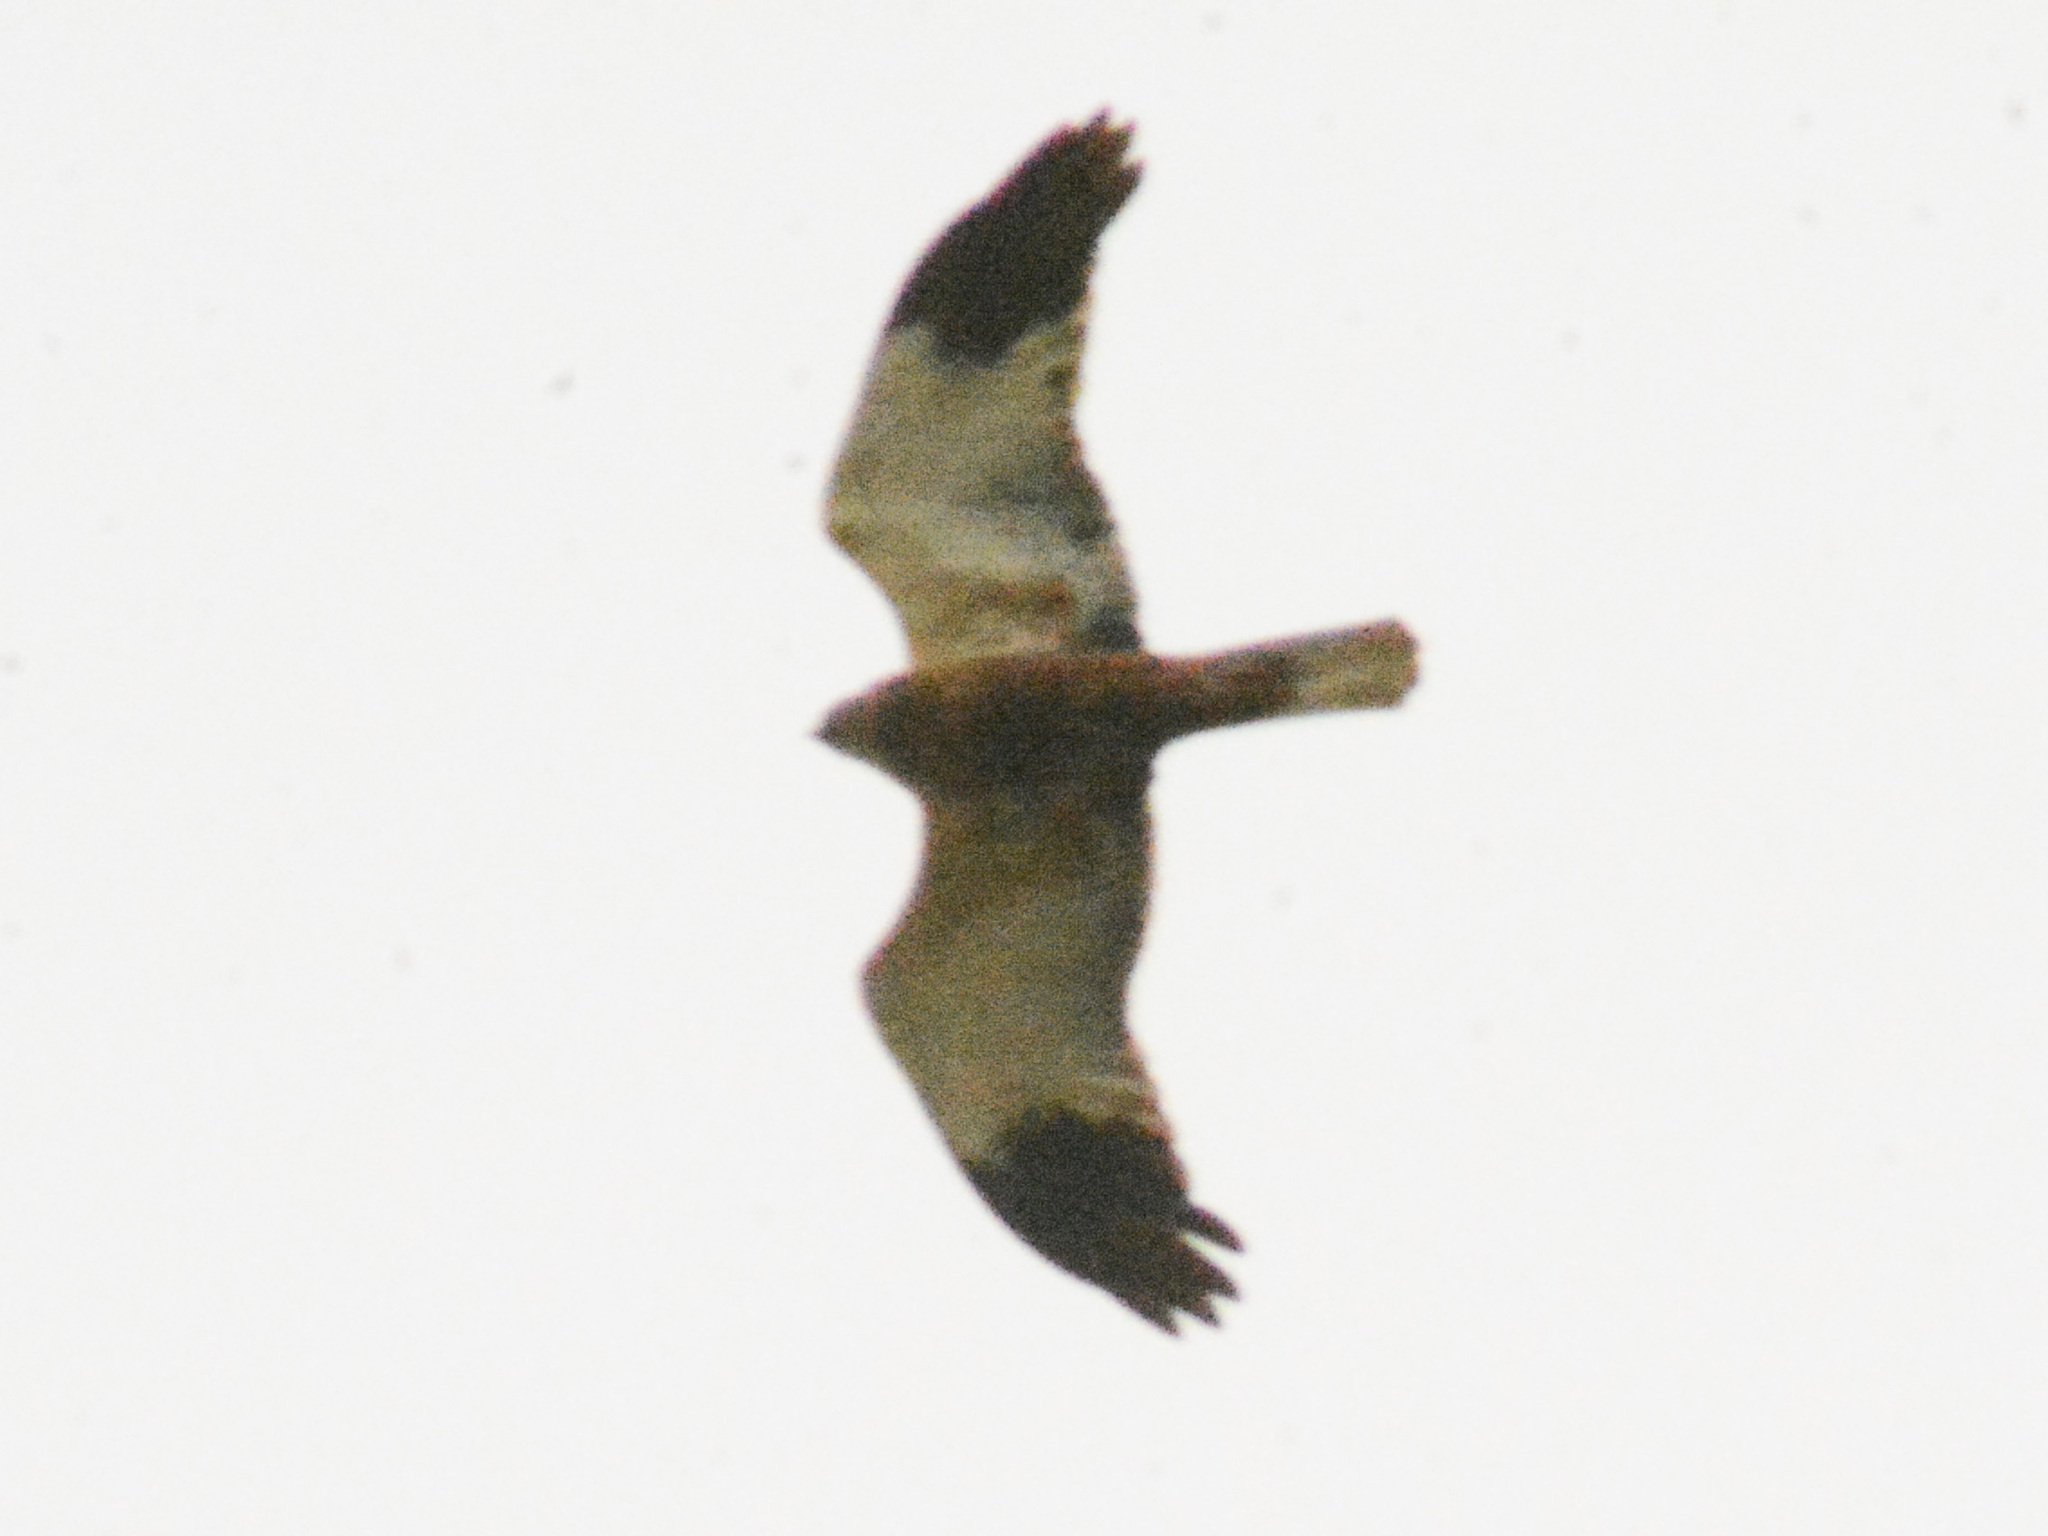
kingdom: Animalia
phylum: Chordata
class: Aves
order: Accipitriformes
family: Accipitridae
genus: Circus
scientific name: Circus aeruginosus
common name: Western marsh harrier
